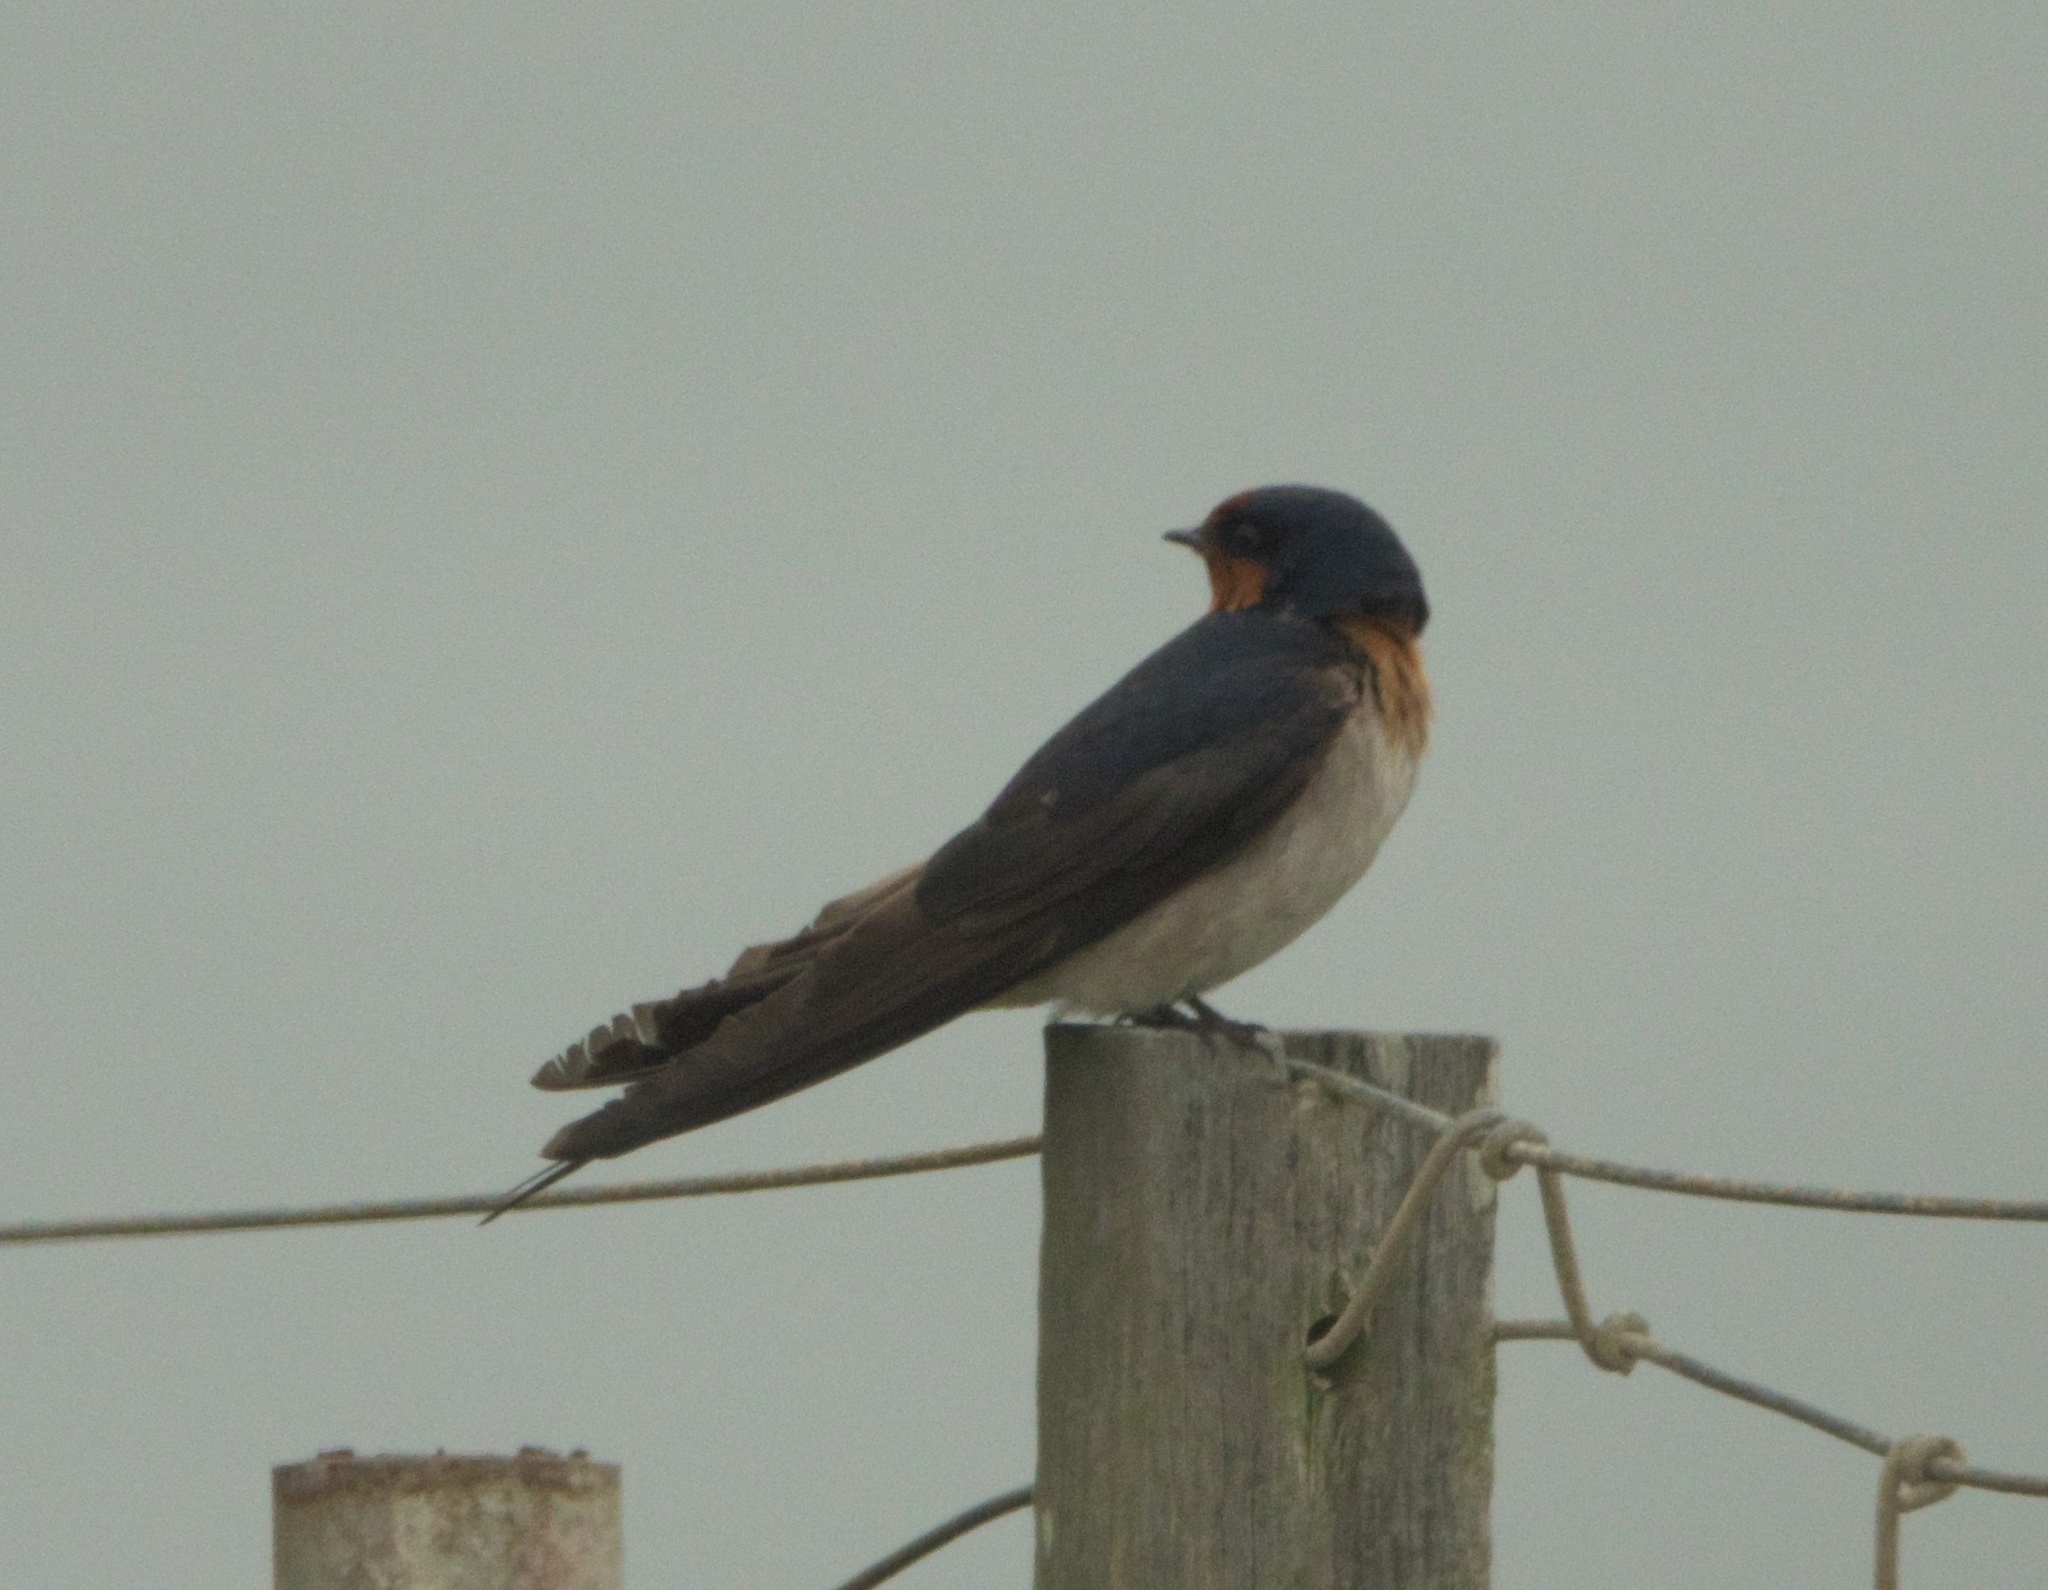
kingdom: Animalia
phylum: Chordata
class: Aves
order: Passeriformes
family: Hirundinidae
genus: Hirundo
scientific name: Hirundo neoxena
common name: Welcome swallow
